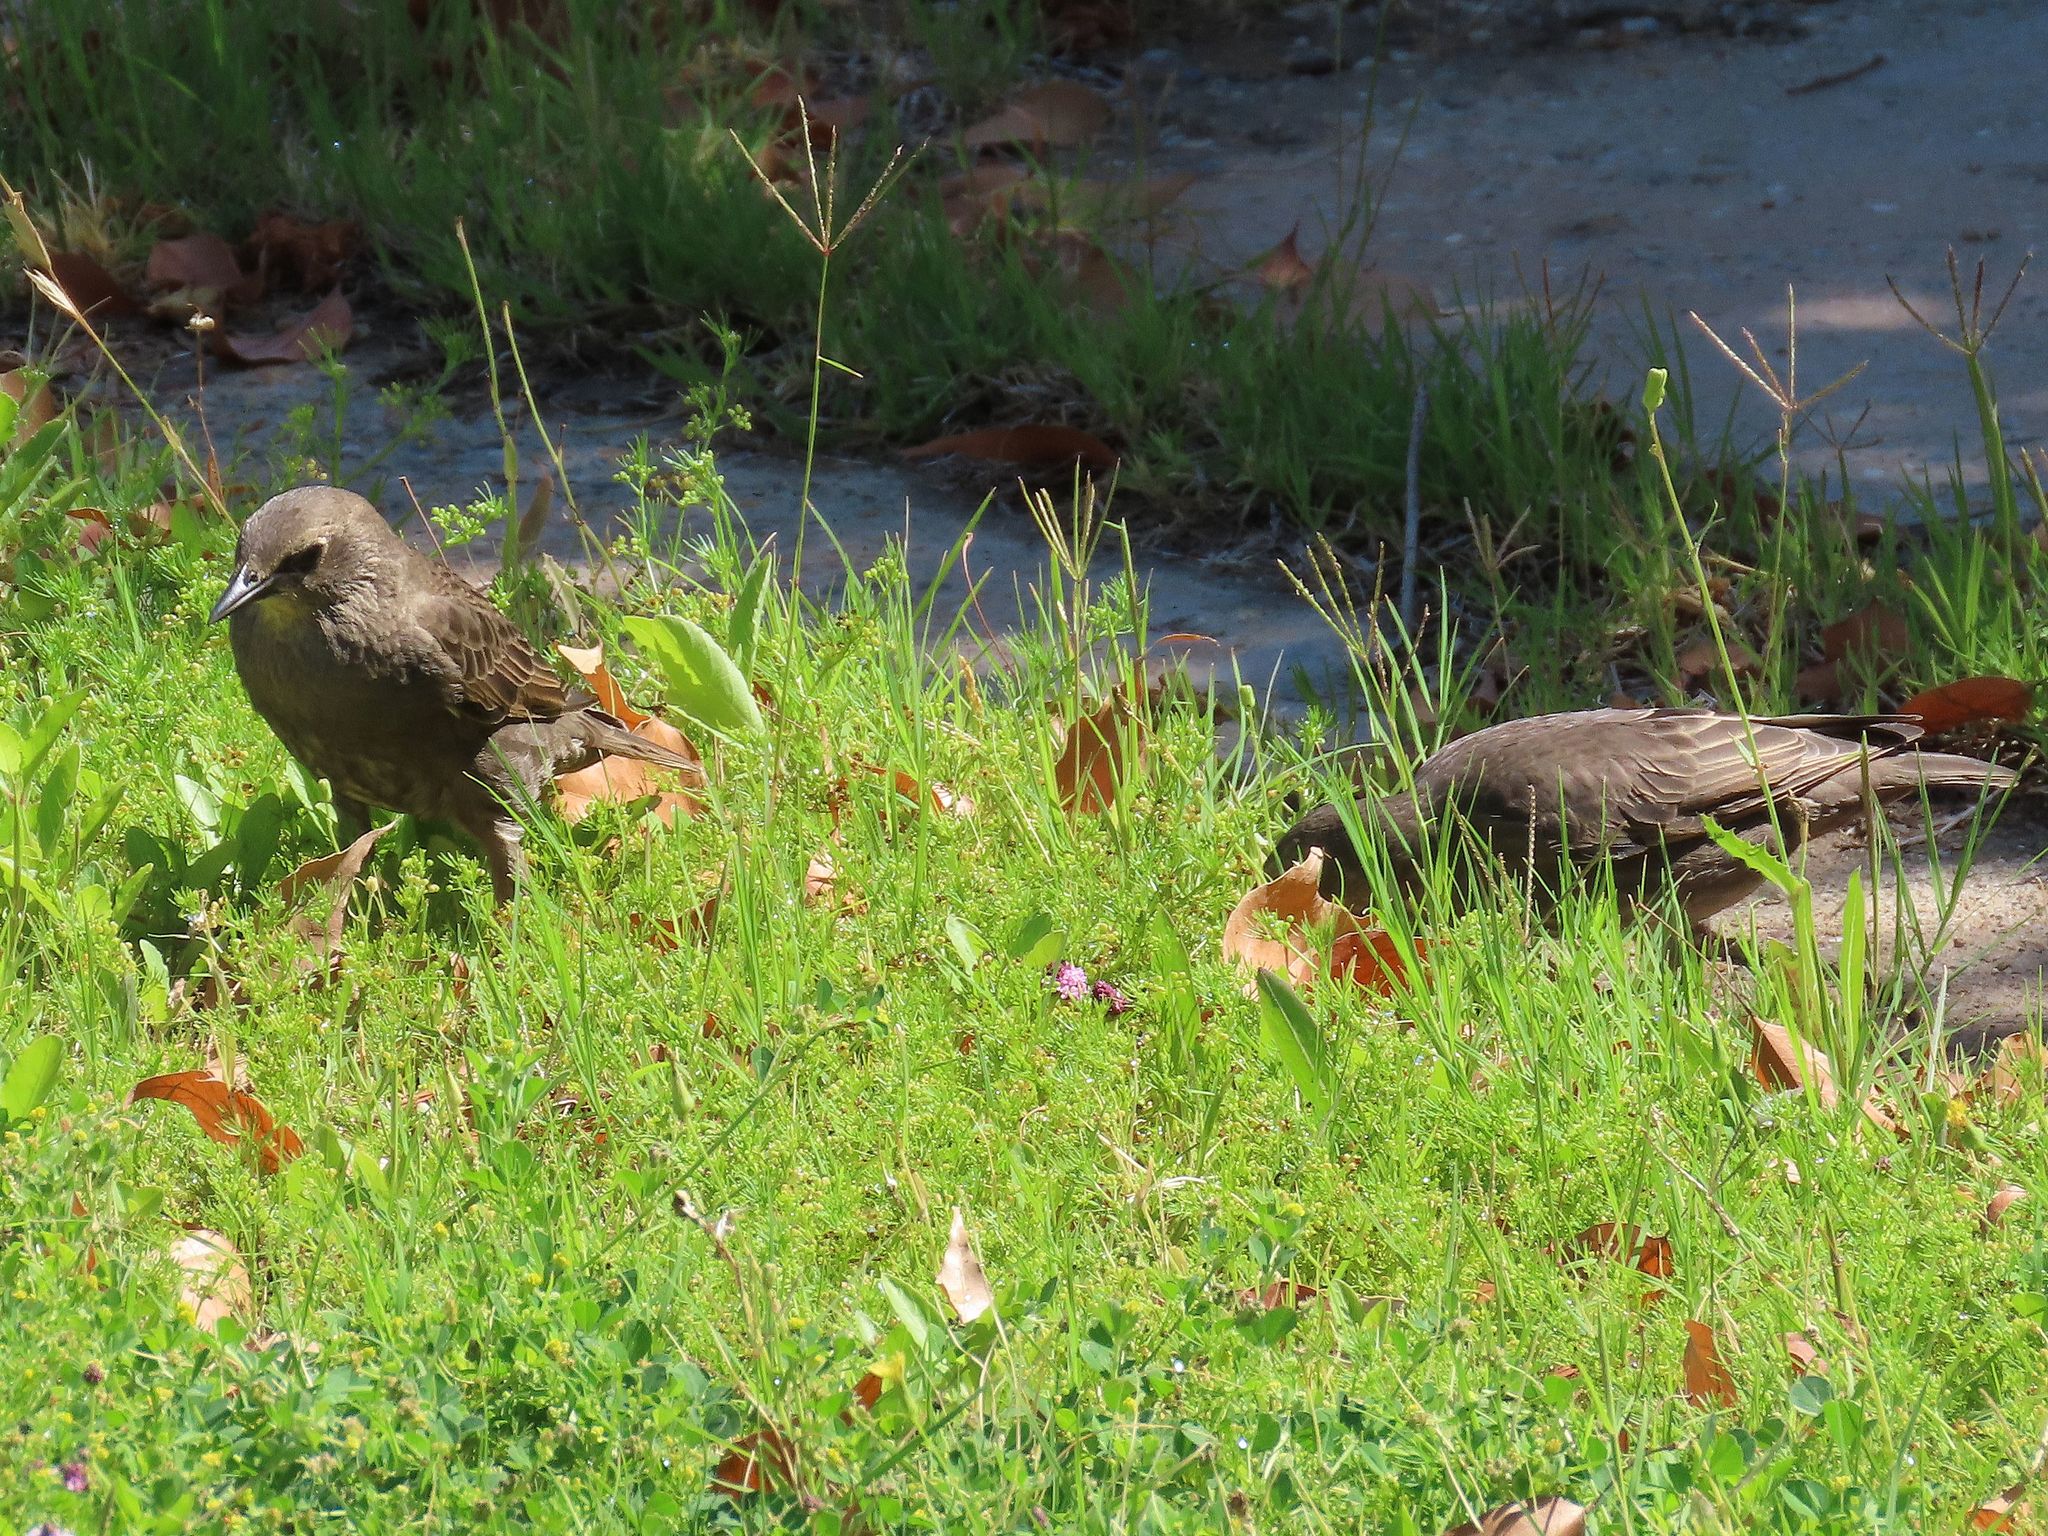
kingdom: Animalia
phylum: Chordata
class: Aves
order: Passeriformes
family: Sturnidae
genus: Sturnus
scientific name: Sturnus vulgaris
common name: Common starling
